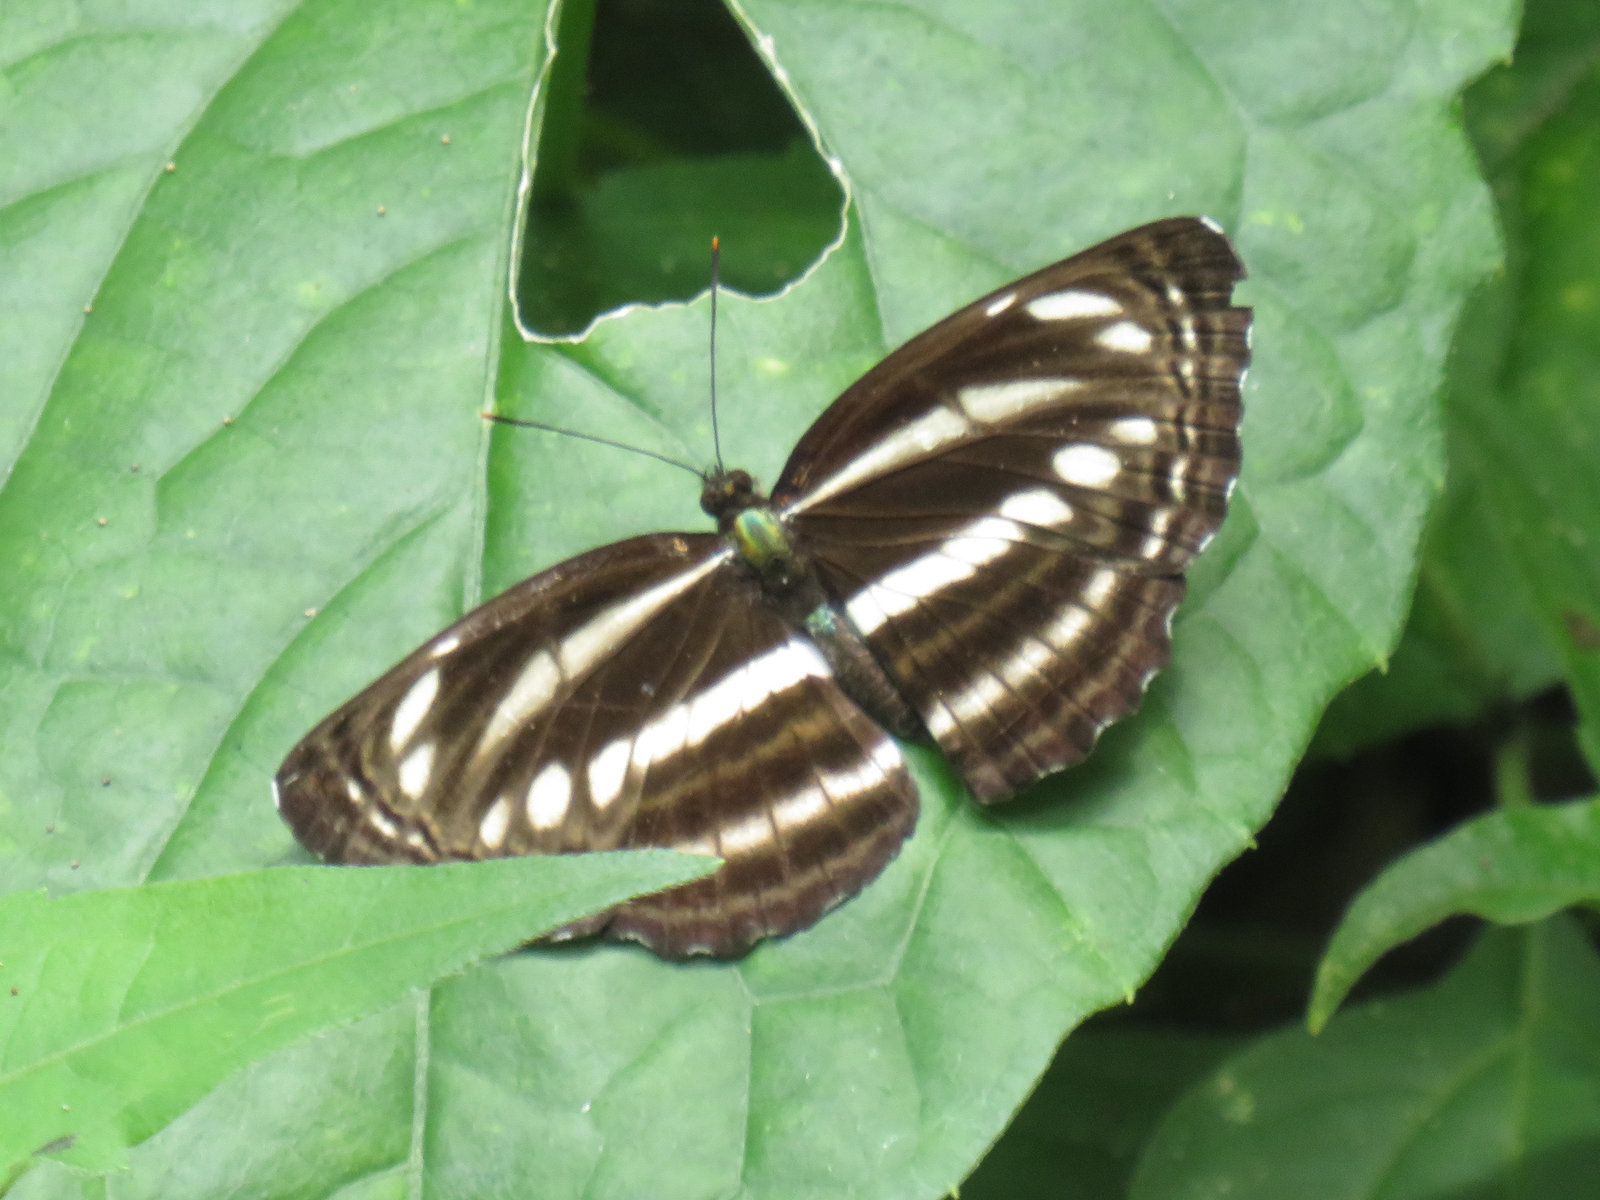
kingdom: Animalia
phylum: Arthropoda
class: Insecta
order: Lepidoptera
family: Nymphalidae
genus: Neptis
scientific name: Neptis clinia
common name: Southern sullied sailer
